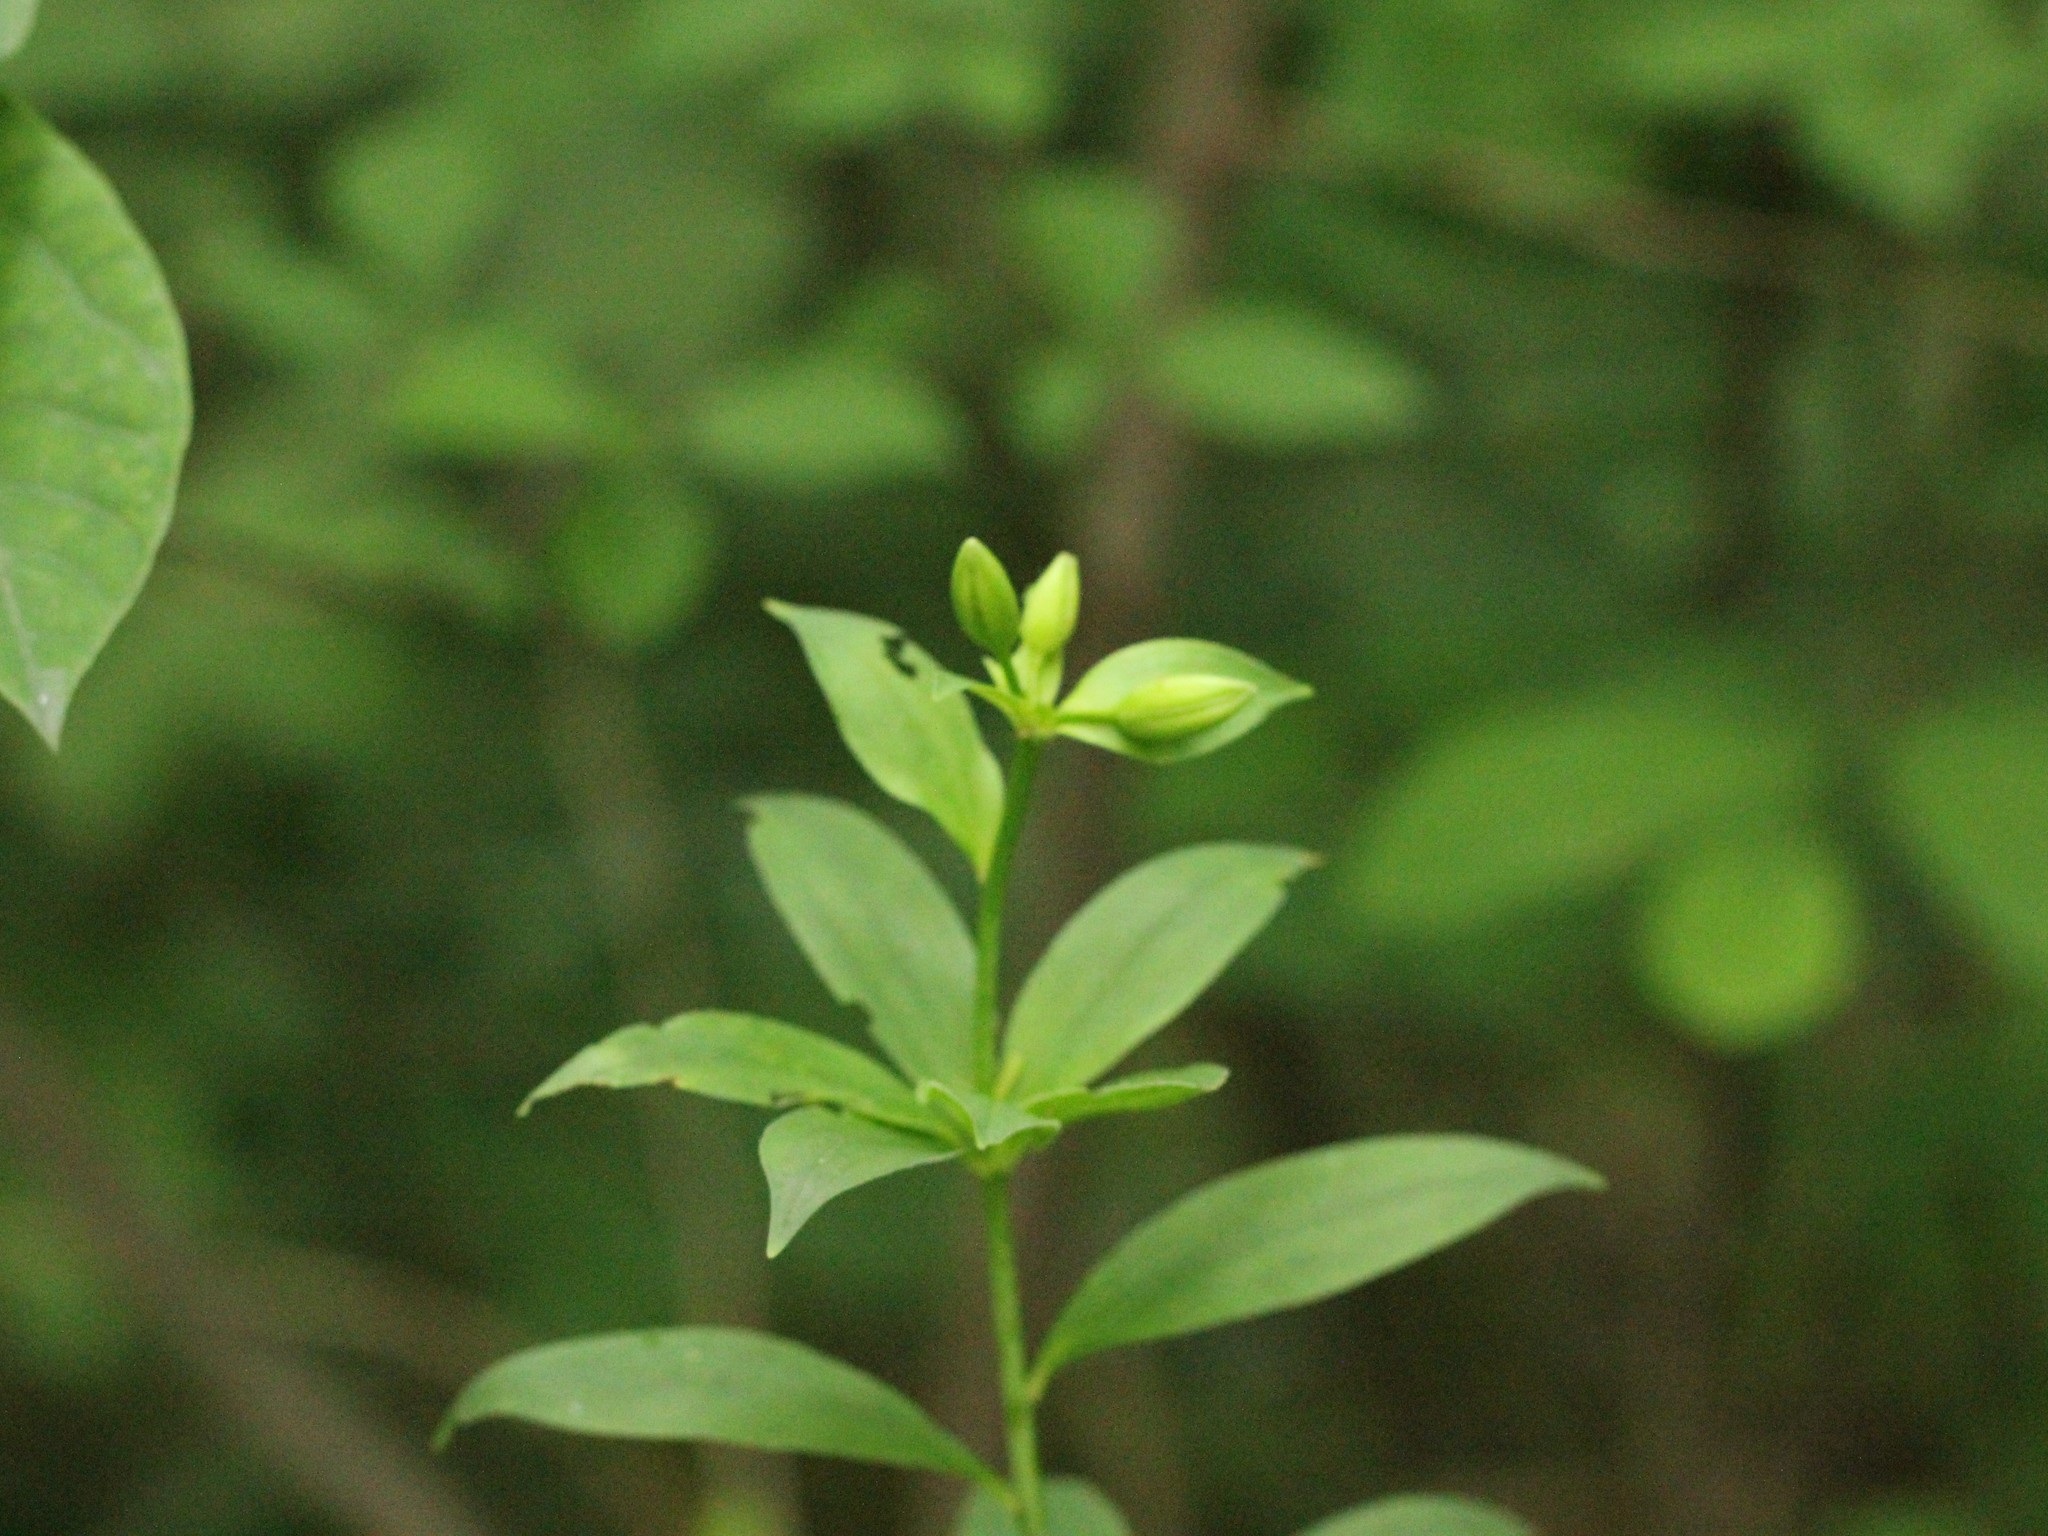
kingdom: Plantae
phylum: Tracheophyta
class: Liliopsida
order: Liliales
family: Liliaceae
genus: Medeola
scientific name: Medeola virginiana
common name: Indian cucumber-root
